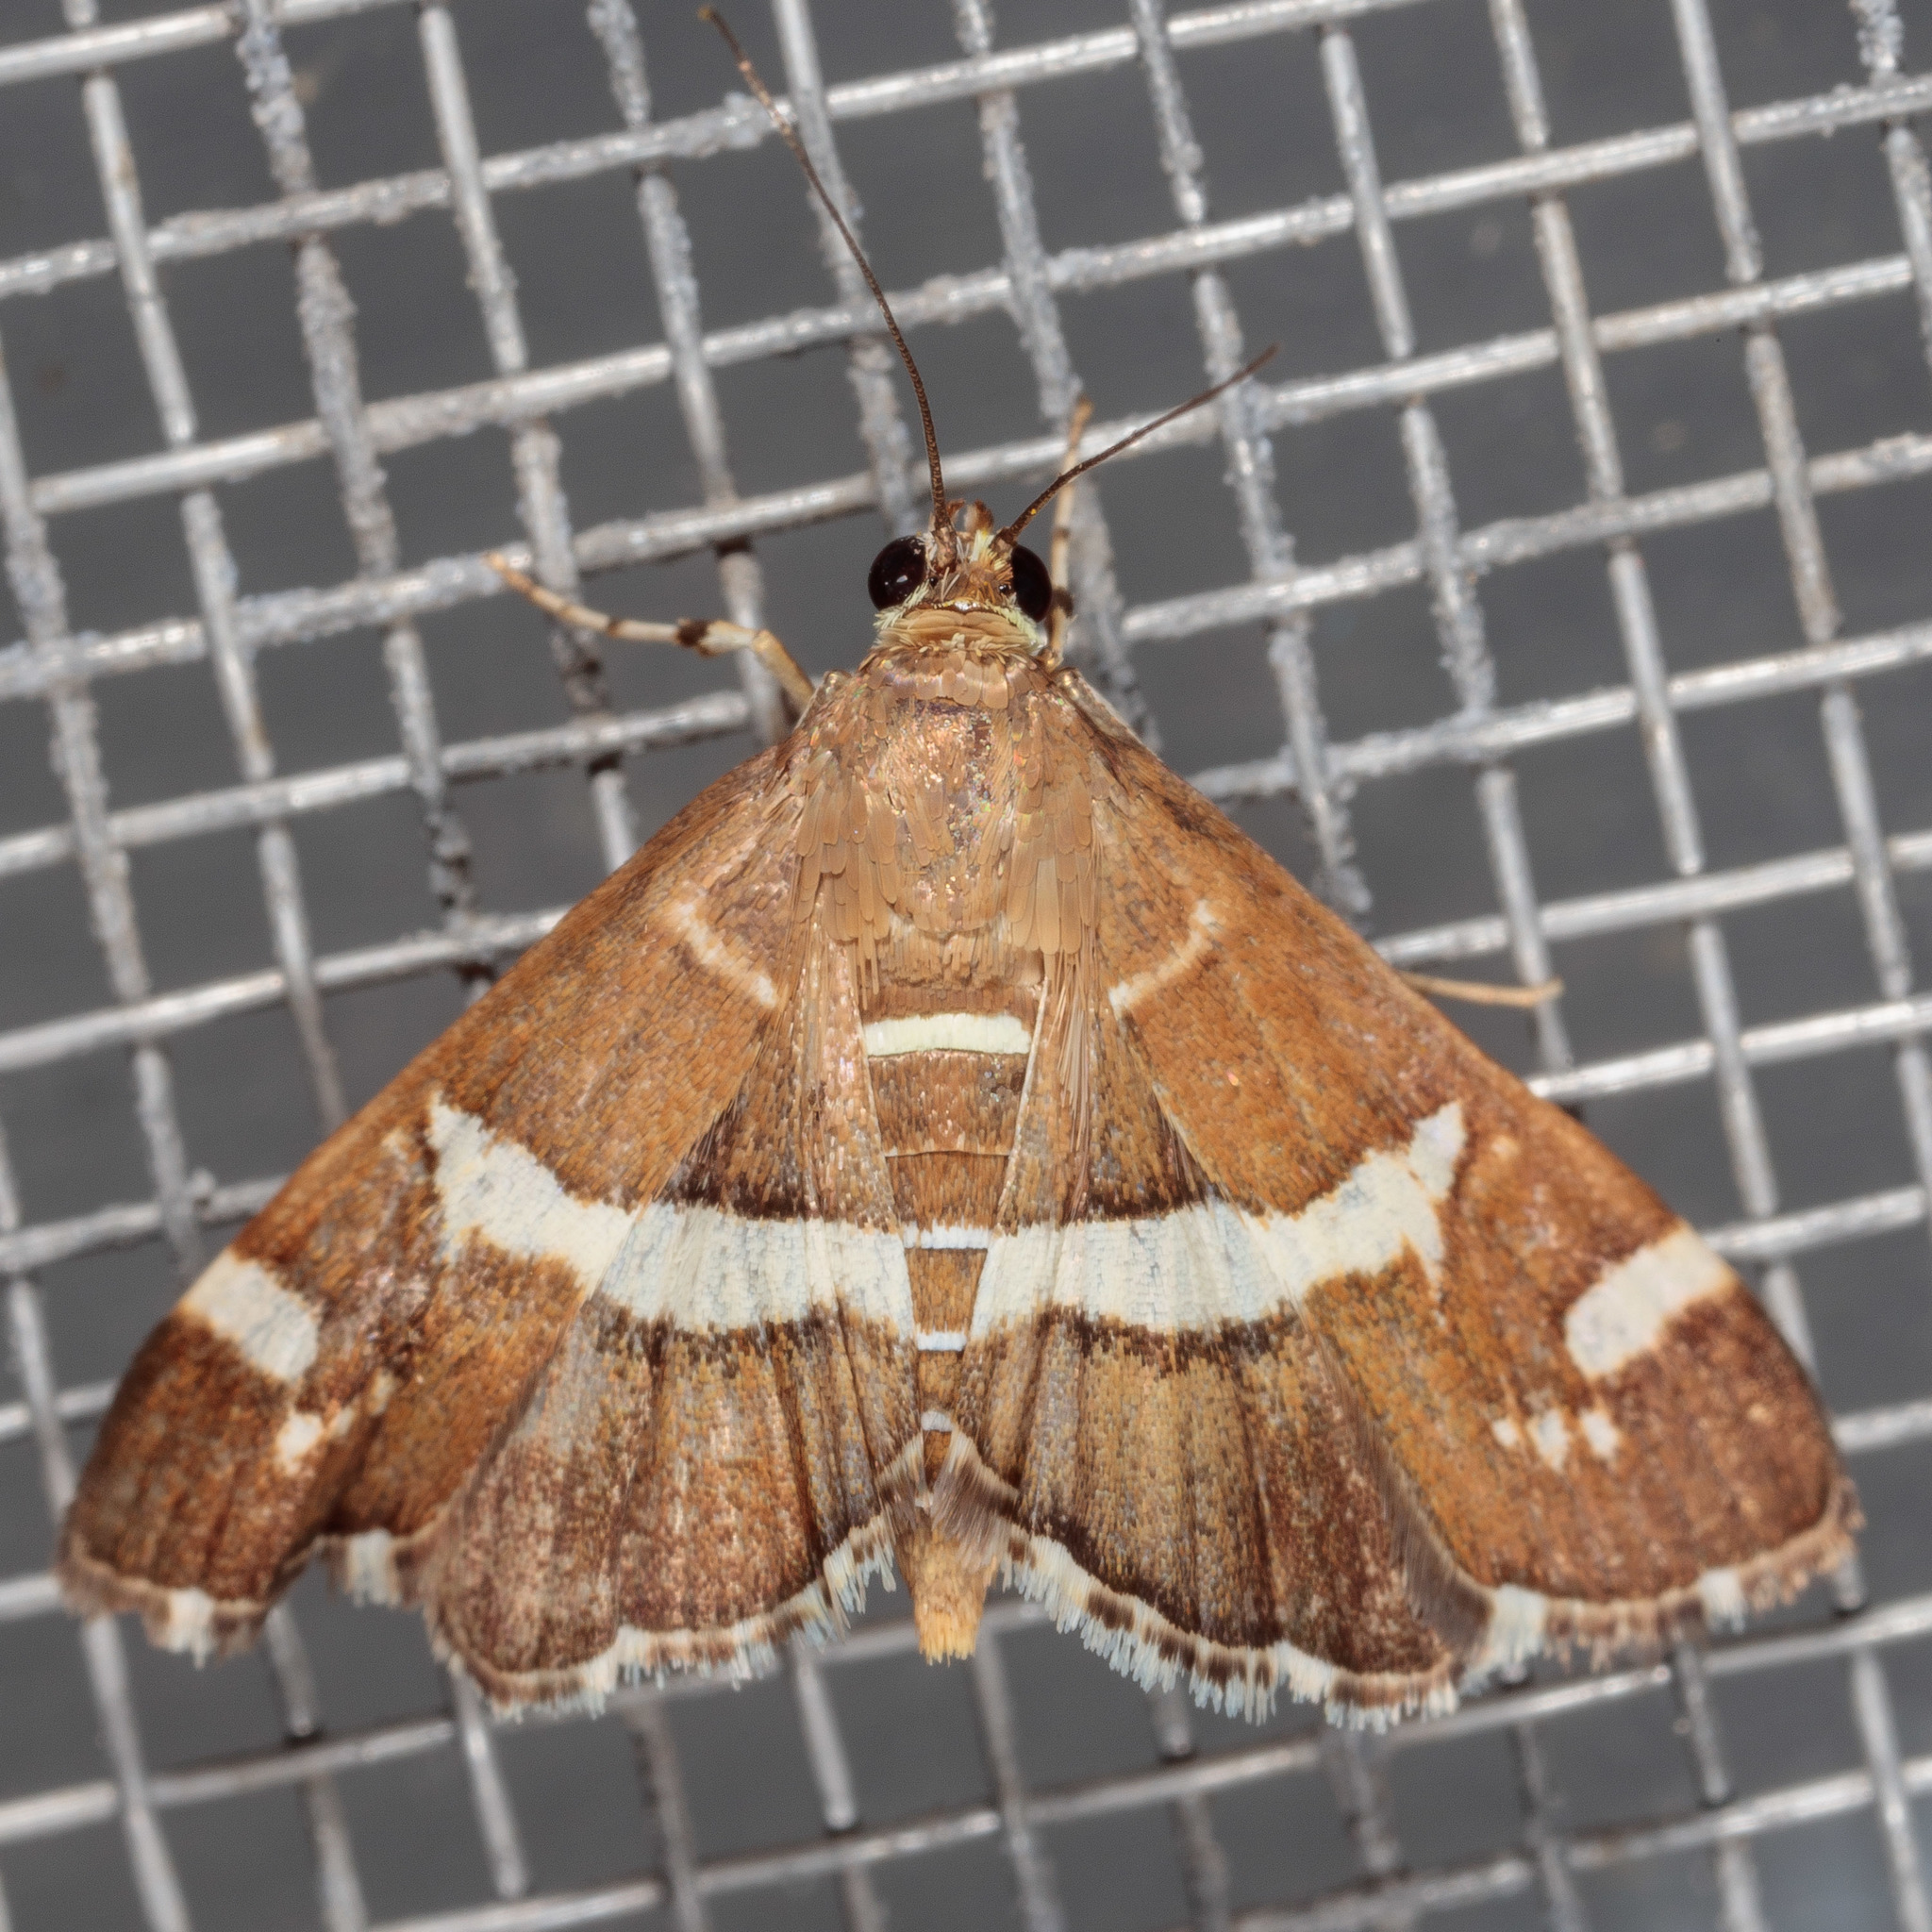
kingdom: Animalia
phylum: Arthropoda
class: Insecta
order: Lepidoptera
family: Crambidae
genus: Spoladea
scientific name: Spoladea recurvalis
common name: Beet webworm moth
